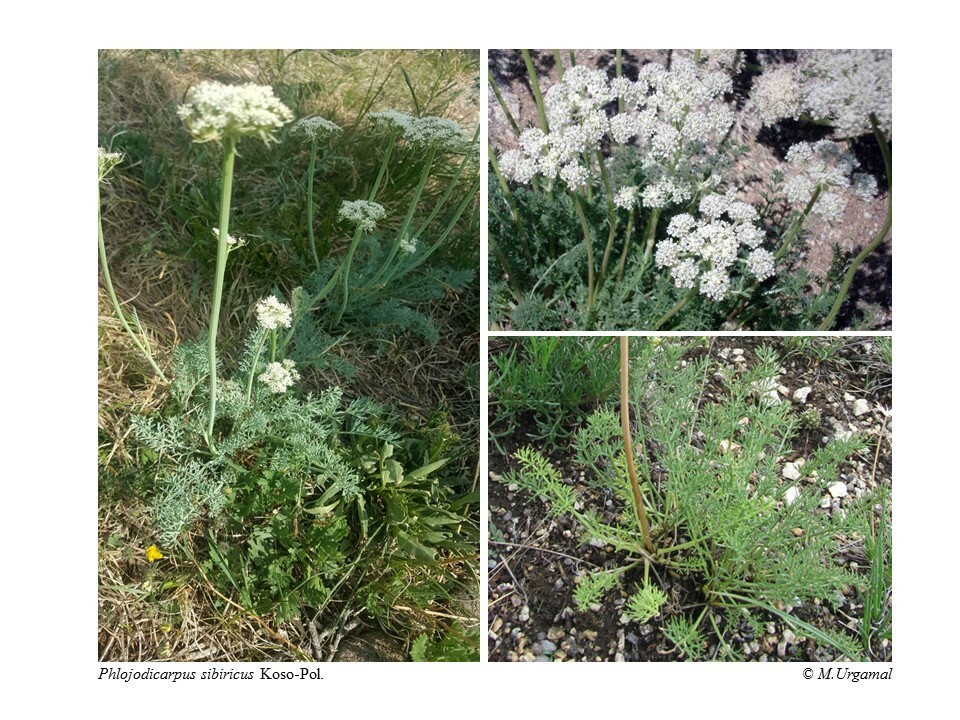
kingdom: Plantae
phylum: Tracheophyta
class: Magnoliopsida
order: Apiales
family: Apiaceae
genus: Phlojodicarpus
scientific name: Phlojodicarpus sibiricus
